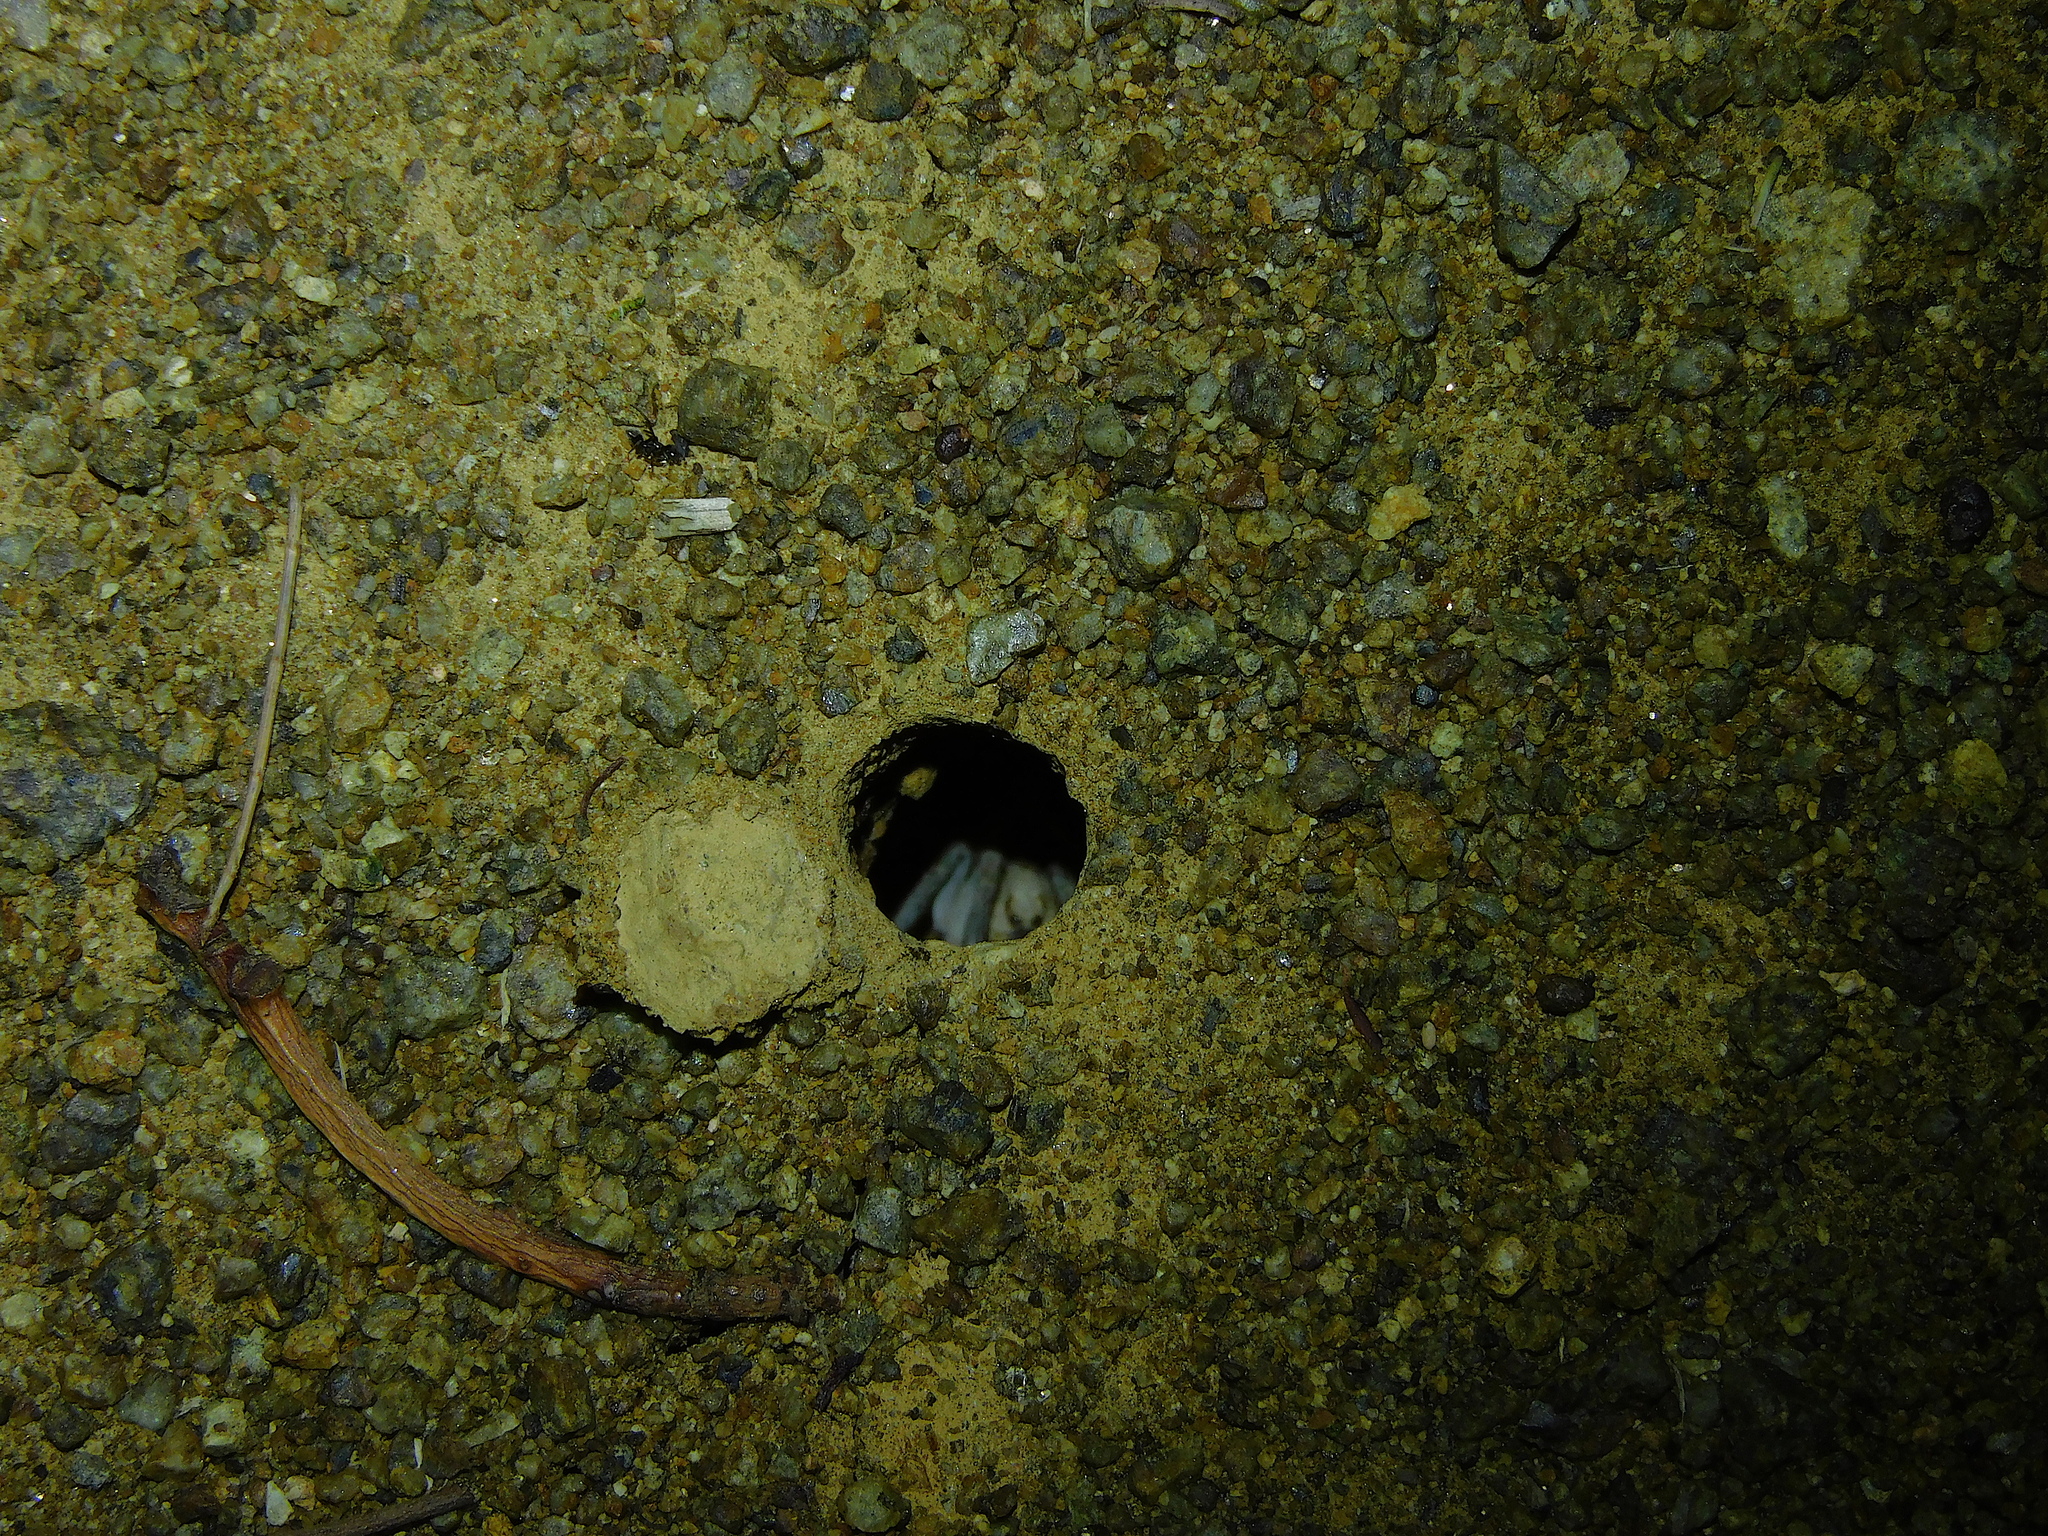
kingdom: Animalia
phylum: Arthropoda
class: Arachnida
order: Araneae
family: Lycosidae
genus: Portacosa
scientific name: Portacosa cinerea
